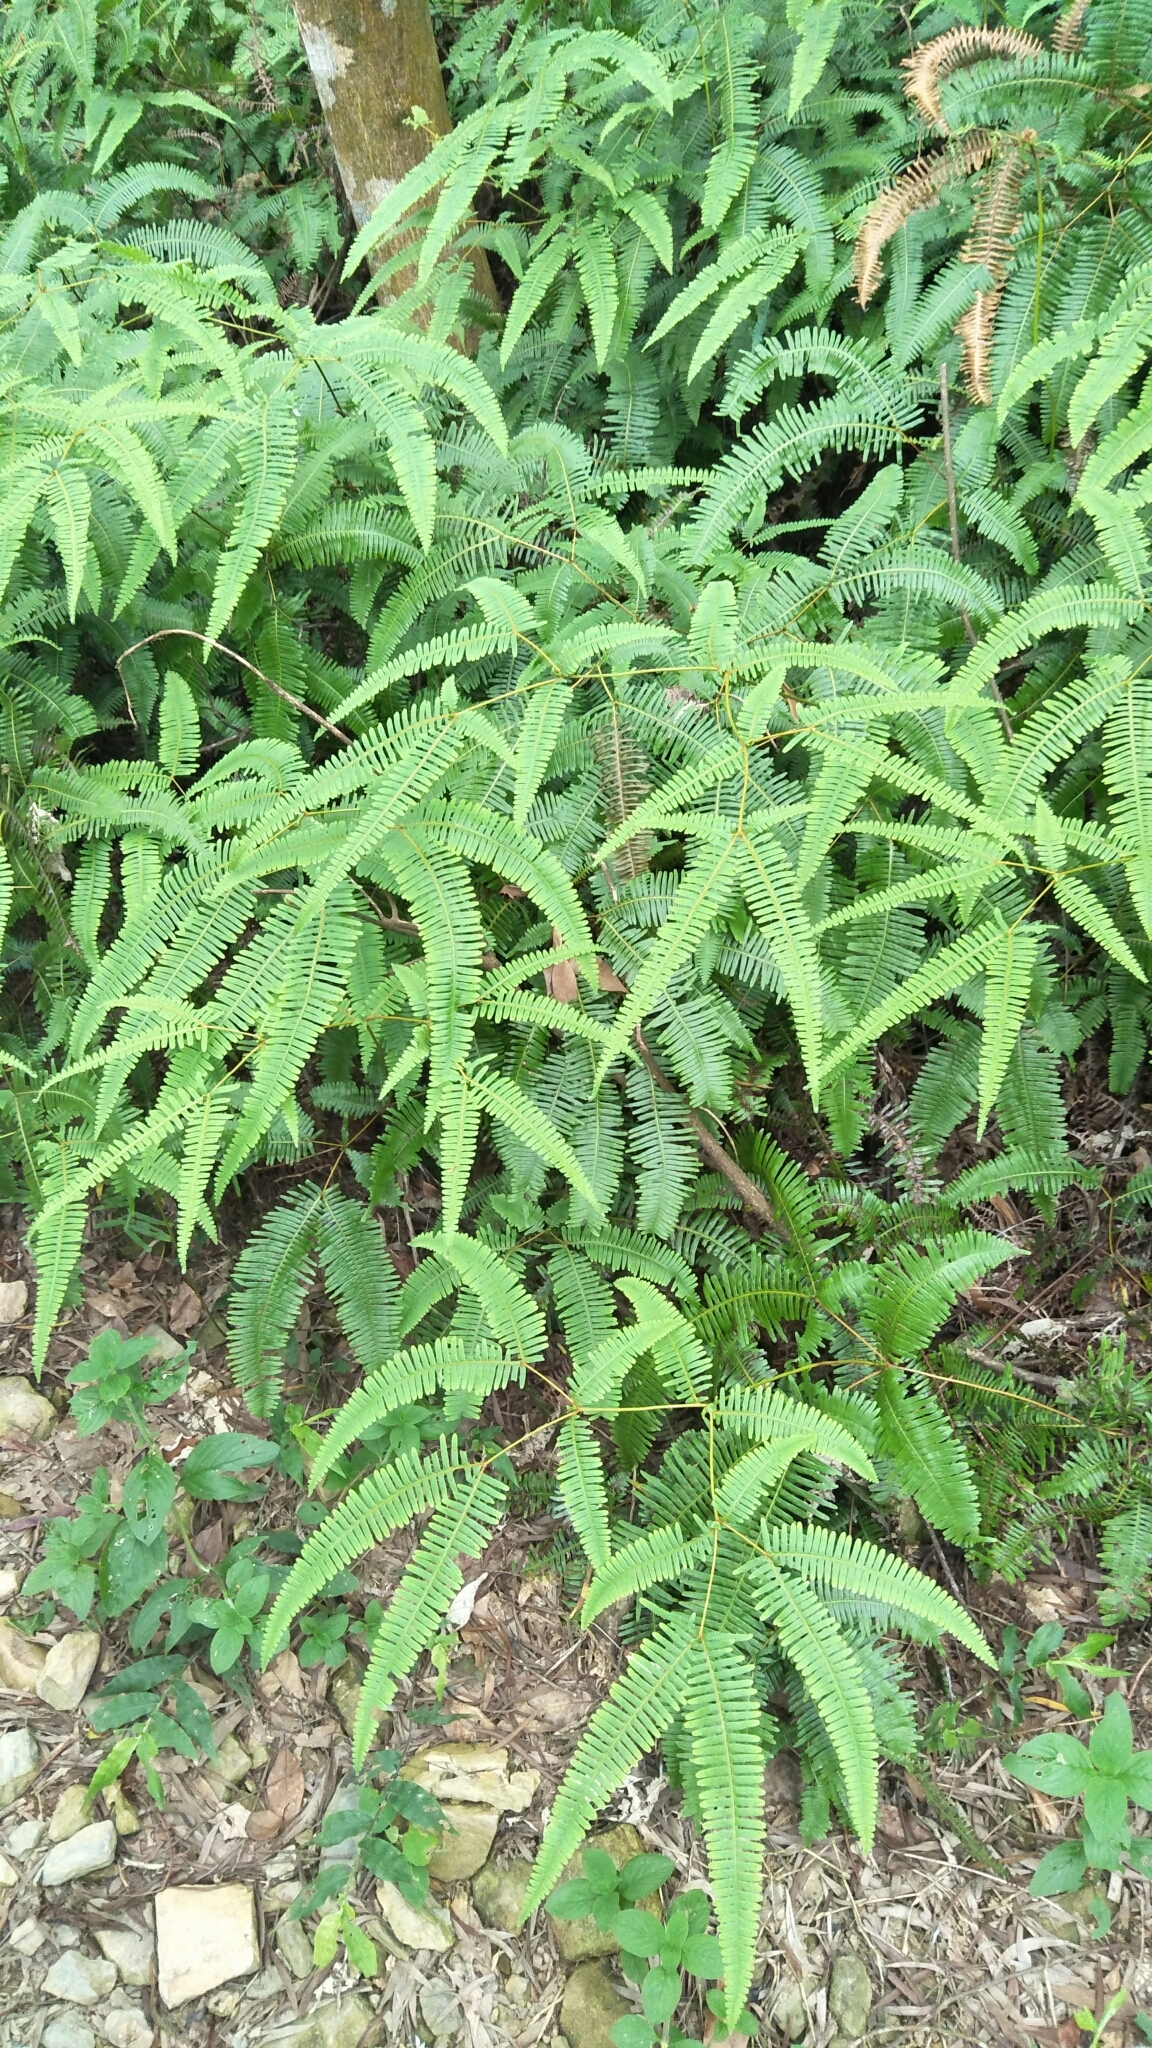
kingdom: Plantae
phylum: Tracheophyta
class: Polypodiopsida
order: Gleicheniales
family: Gleicheniaceae
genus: Dicranopteris
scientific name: Dicranopteris linearis
